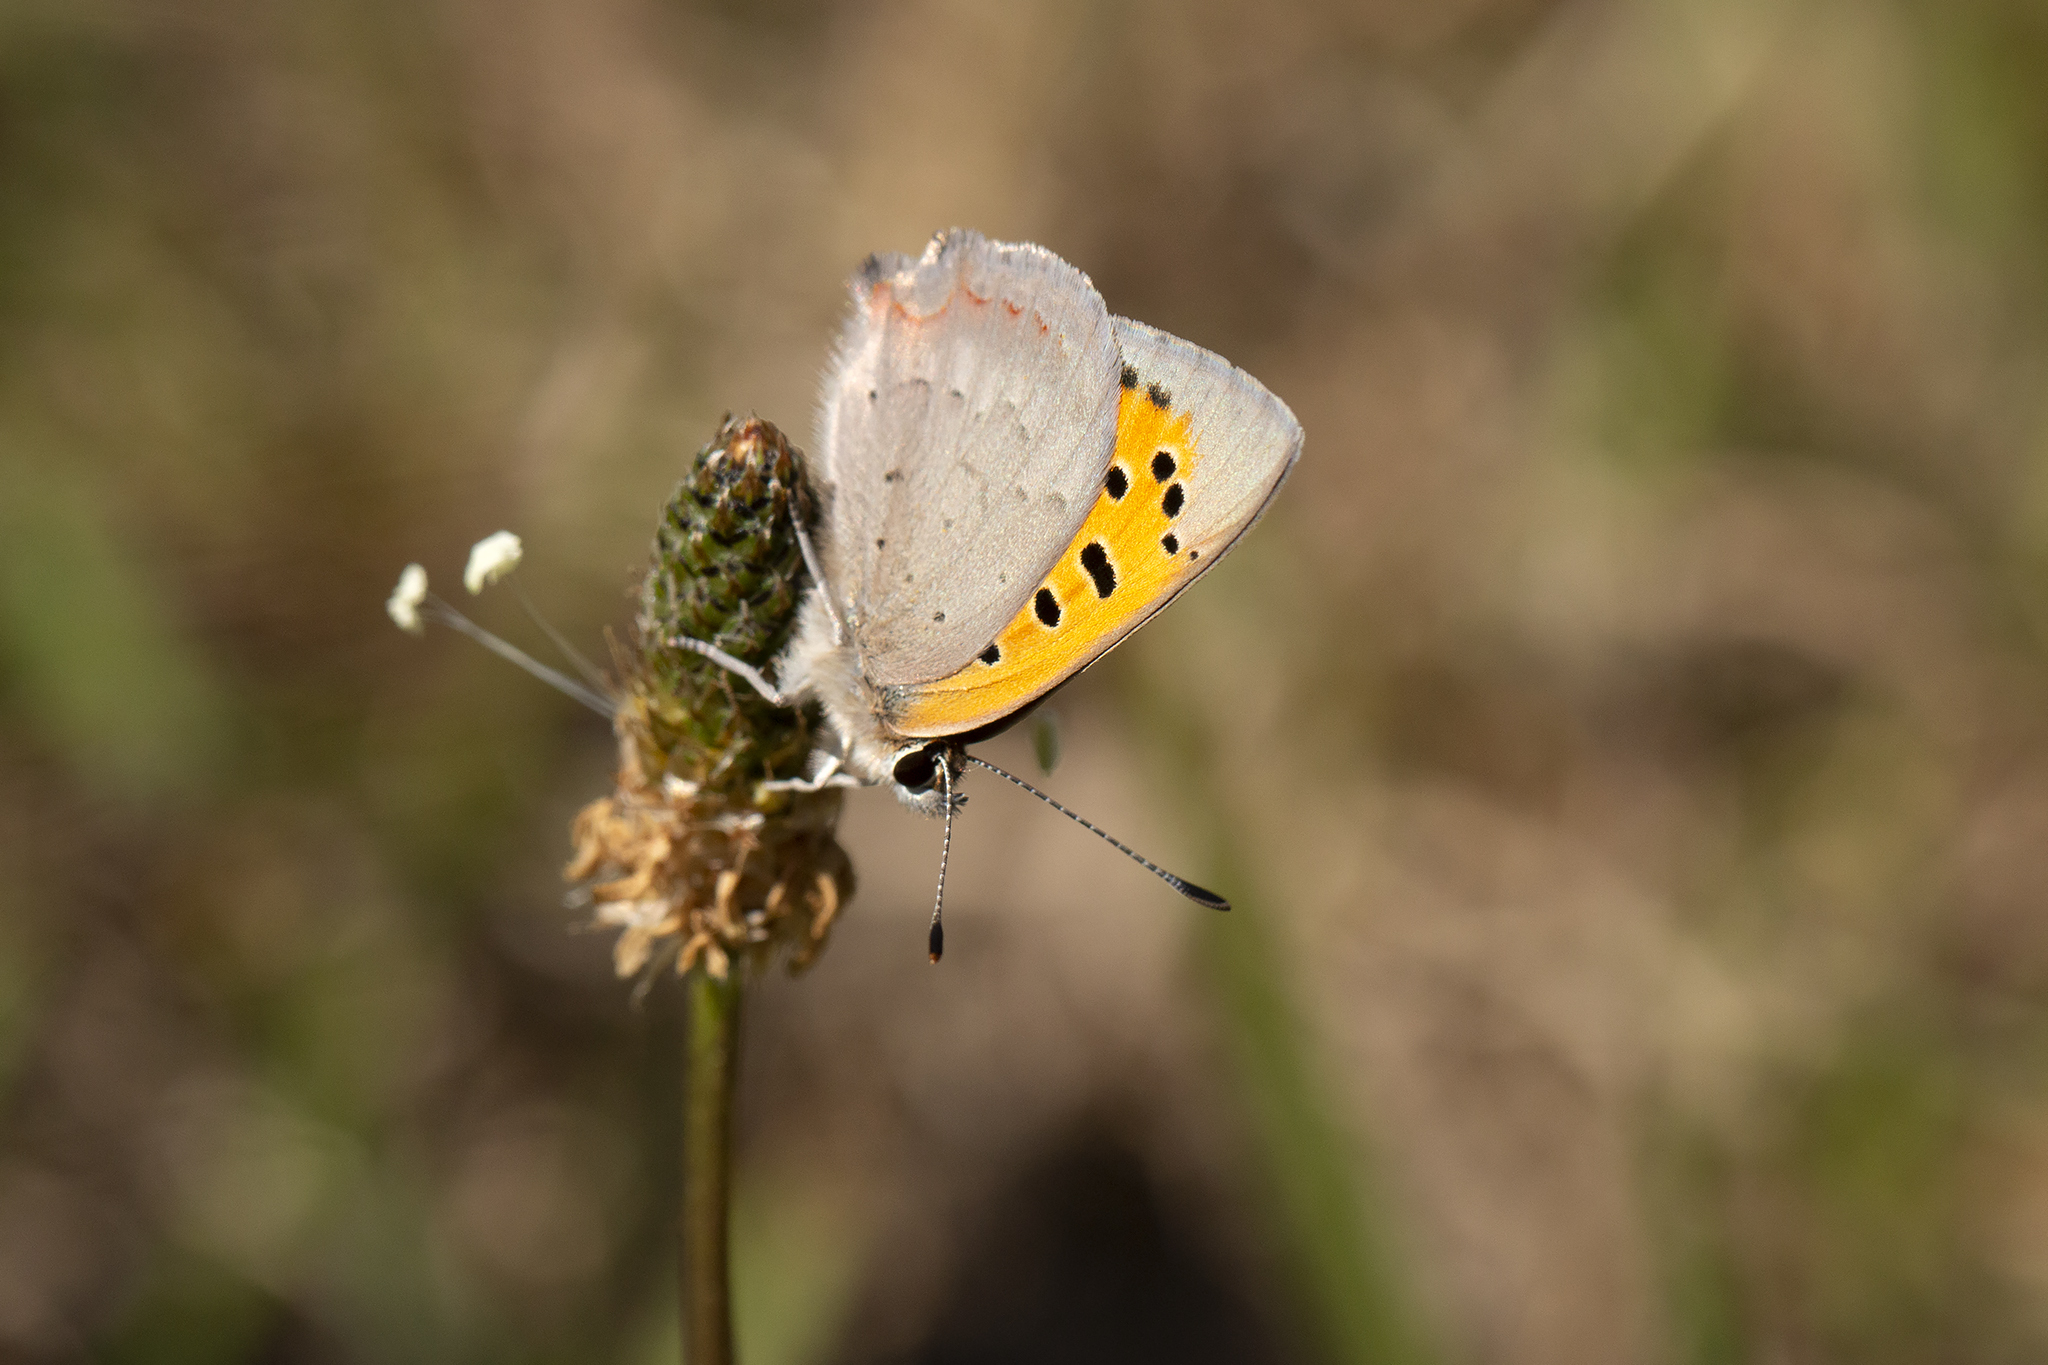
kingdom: Animalia
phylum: Arthropoda
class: Insecta
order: Lepidoptera
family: Lycaenidae
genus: Lycaena
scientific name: Lycaena phlaeas
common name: Small copper
